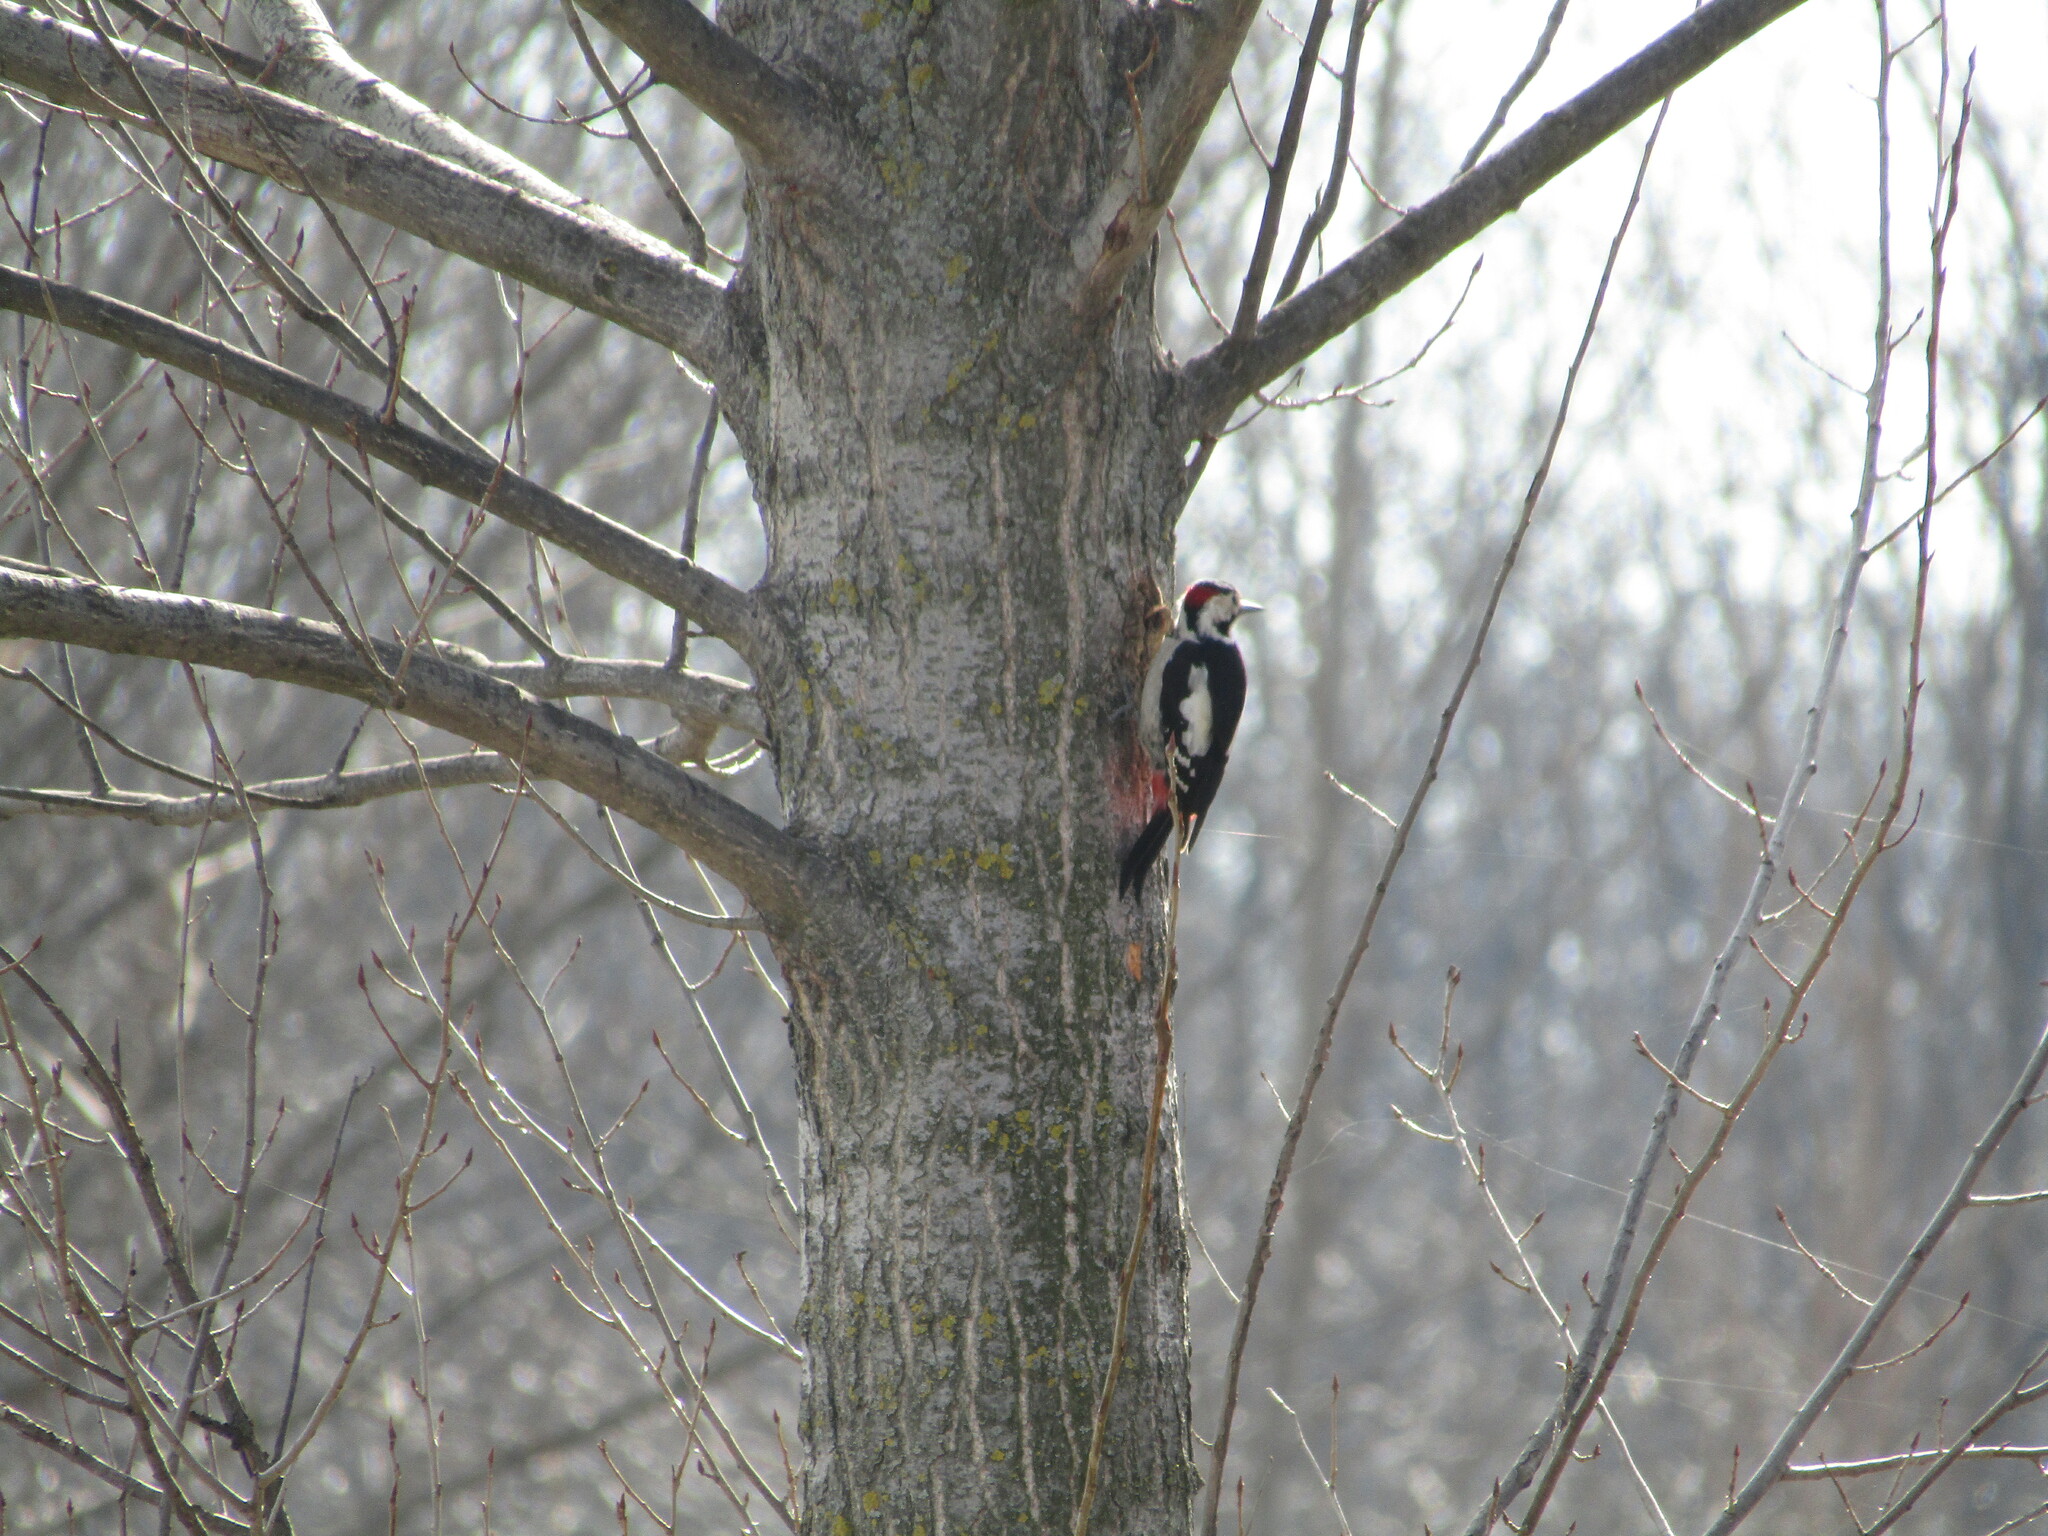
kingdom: Animalia
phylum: Chordata
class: Aves
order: Piciformes
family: Picidae
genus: Dendrocopos
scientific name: Dendrocopos syriacus
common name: Syrian woodpecker
